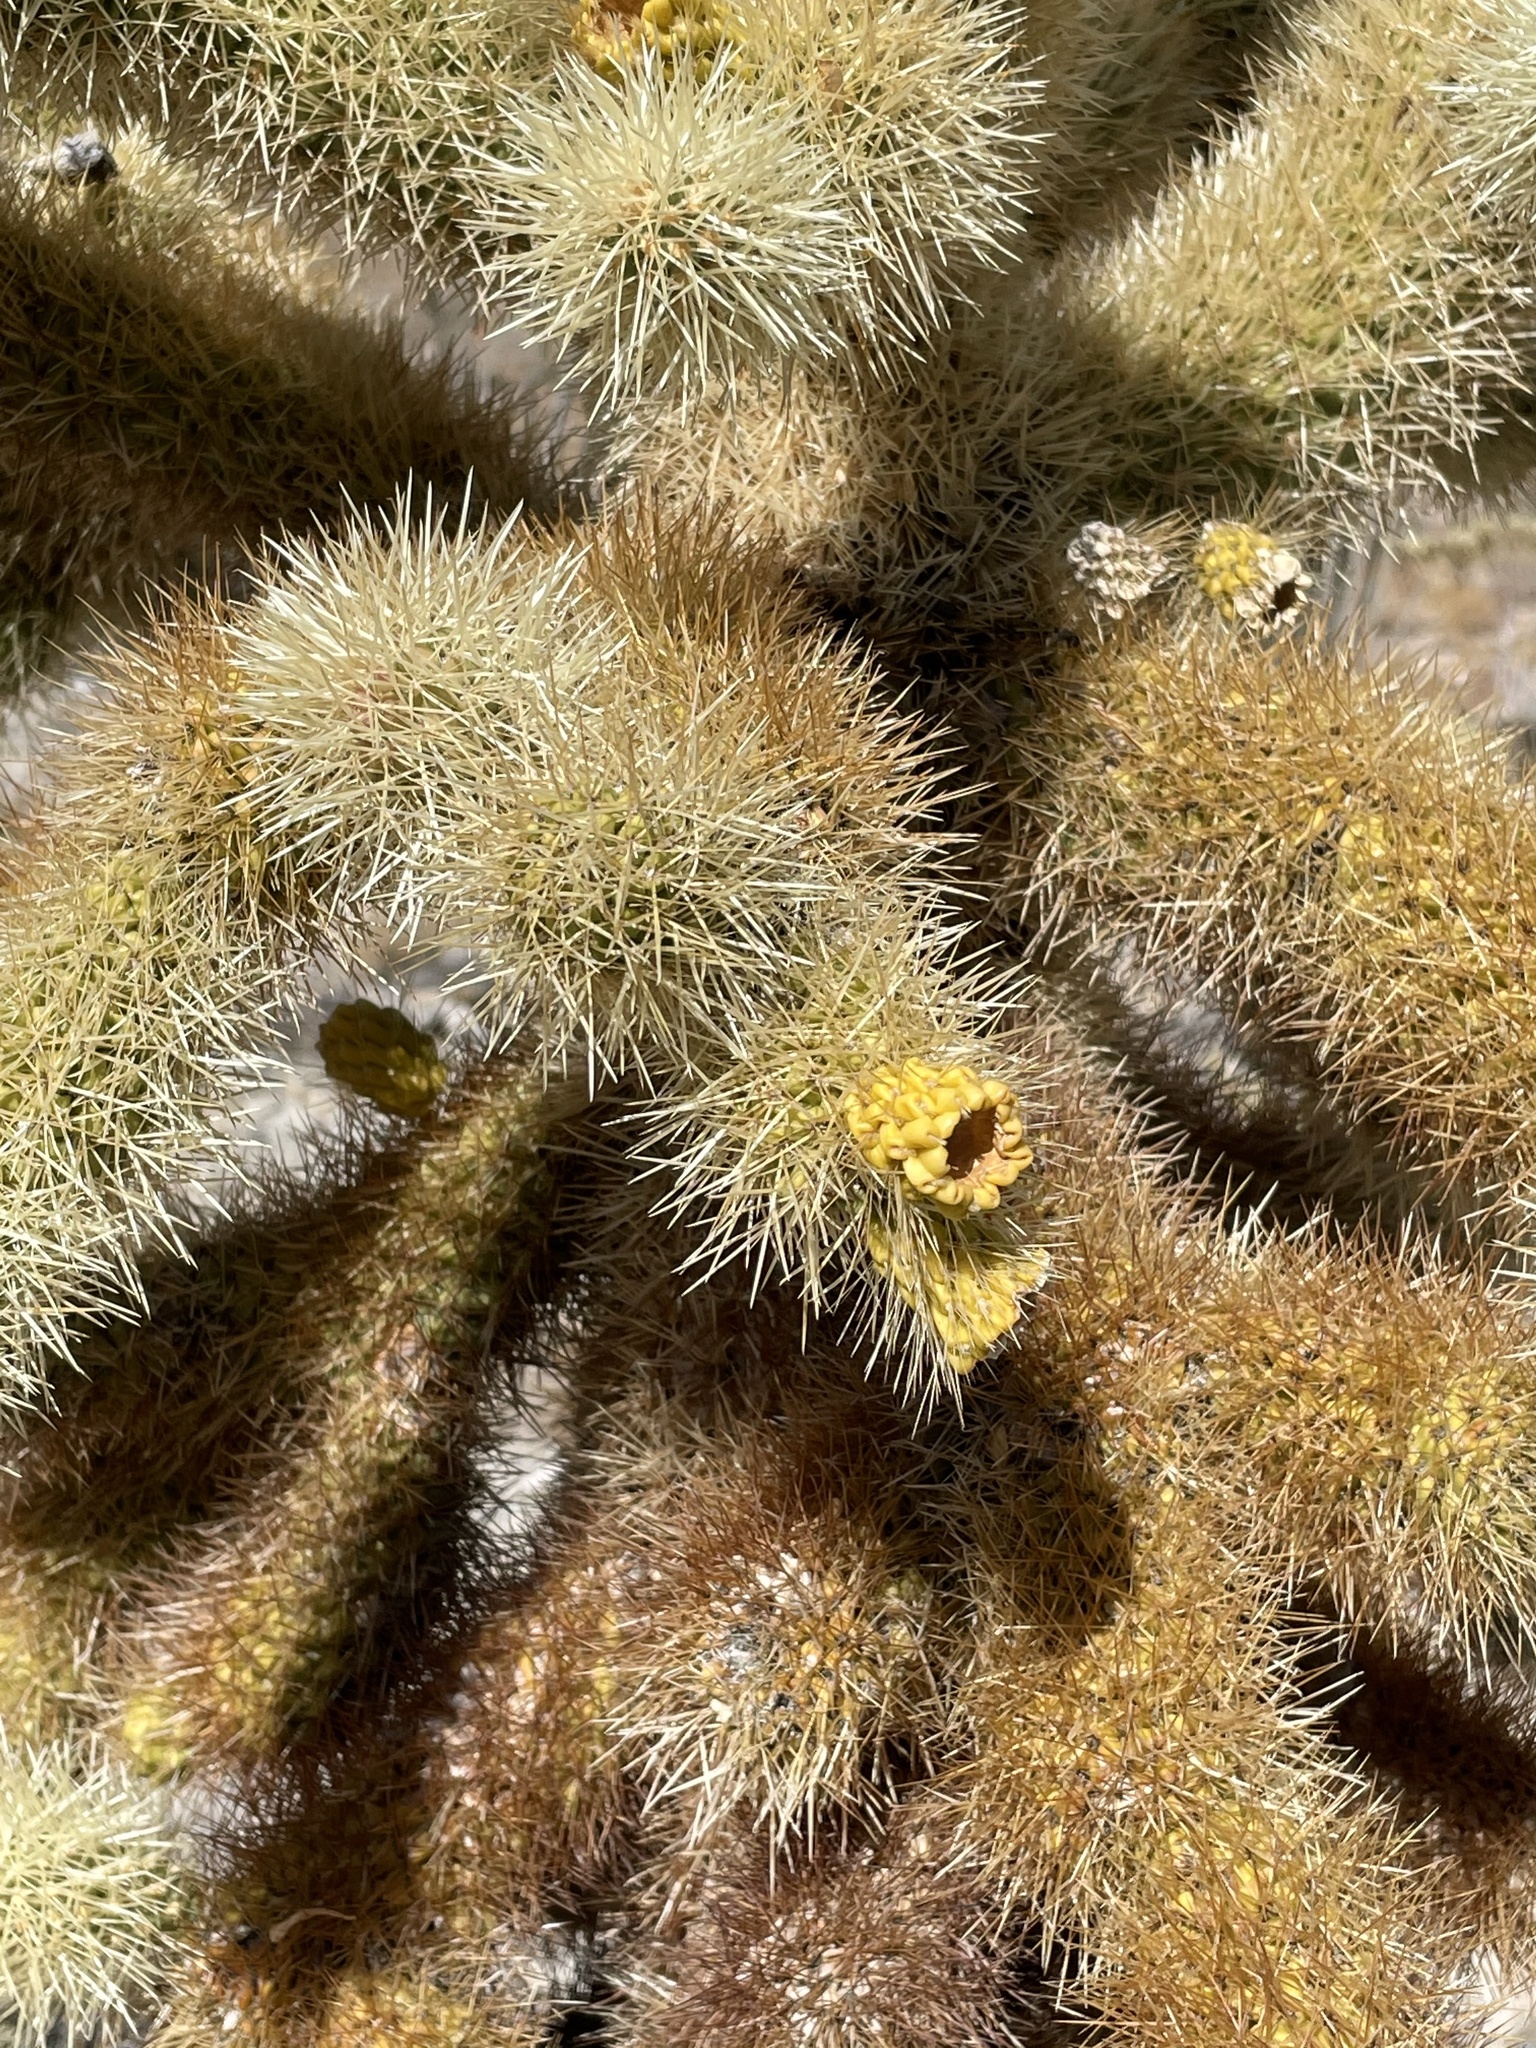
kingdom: Plantae
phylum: Tracheophyta
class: Magnoliopsida
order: Caryophyllales
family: Cactaceae
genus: Cylindropuntia
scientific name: Cylindropuntia fosbergii
